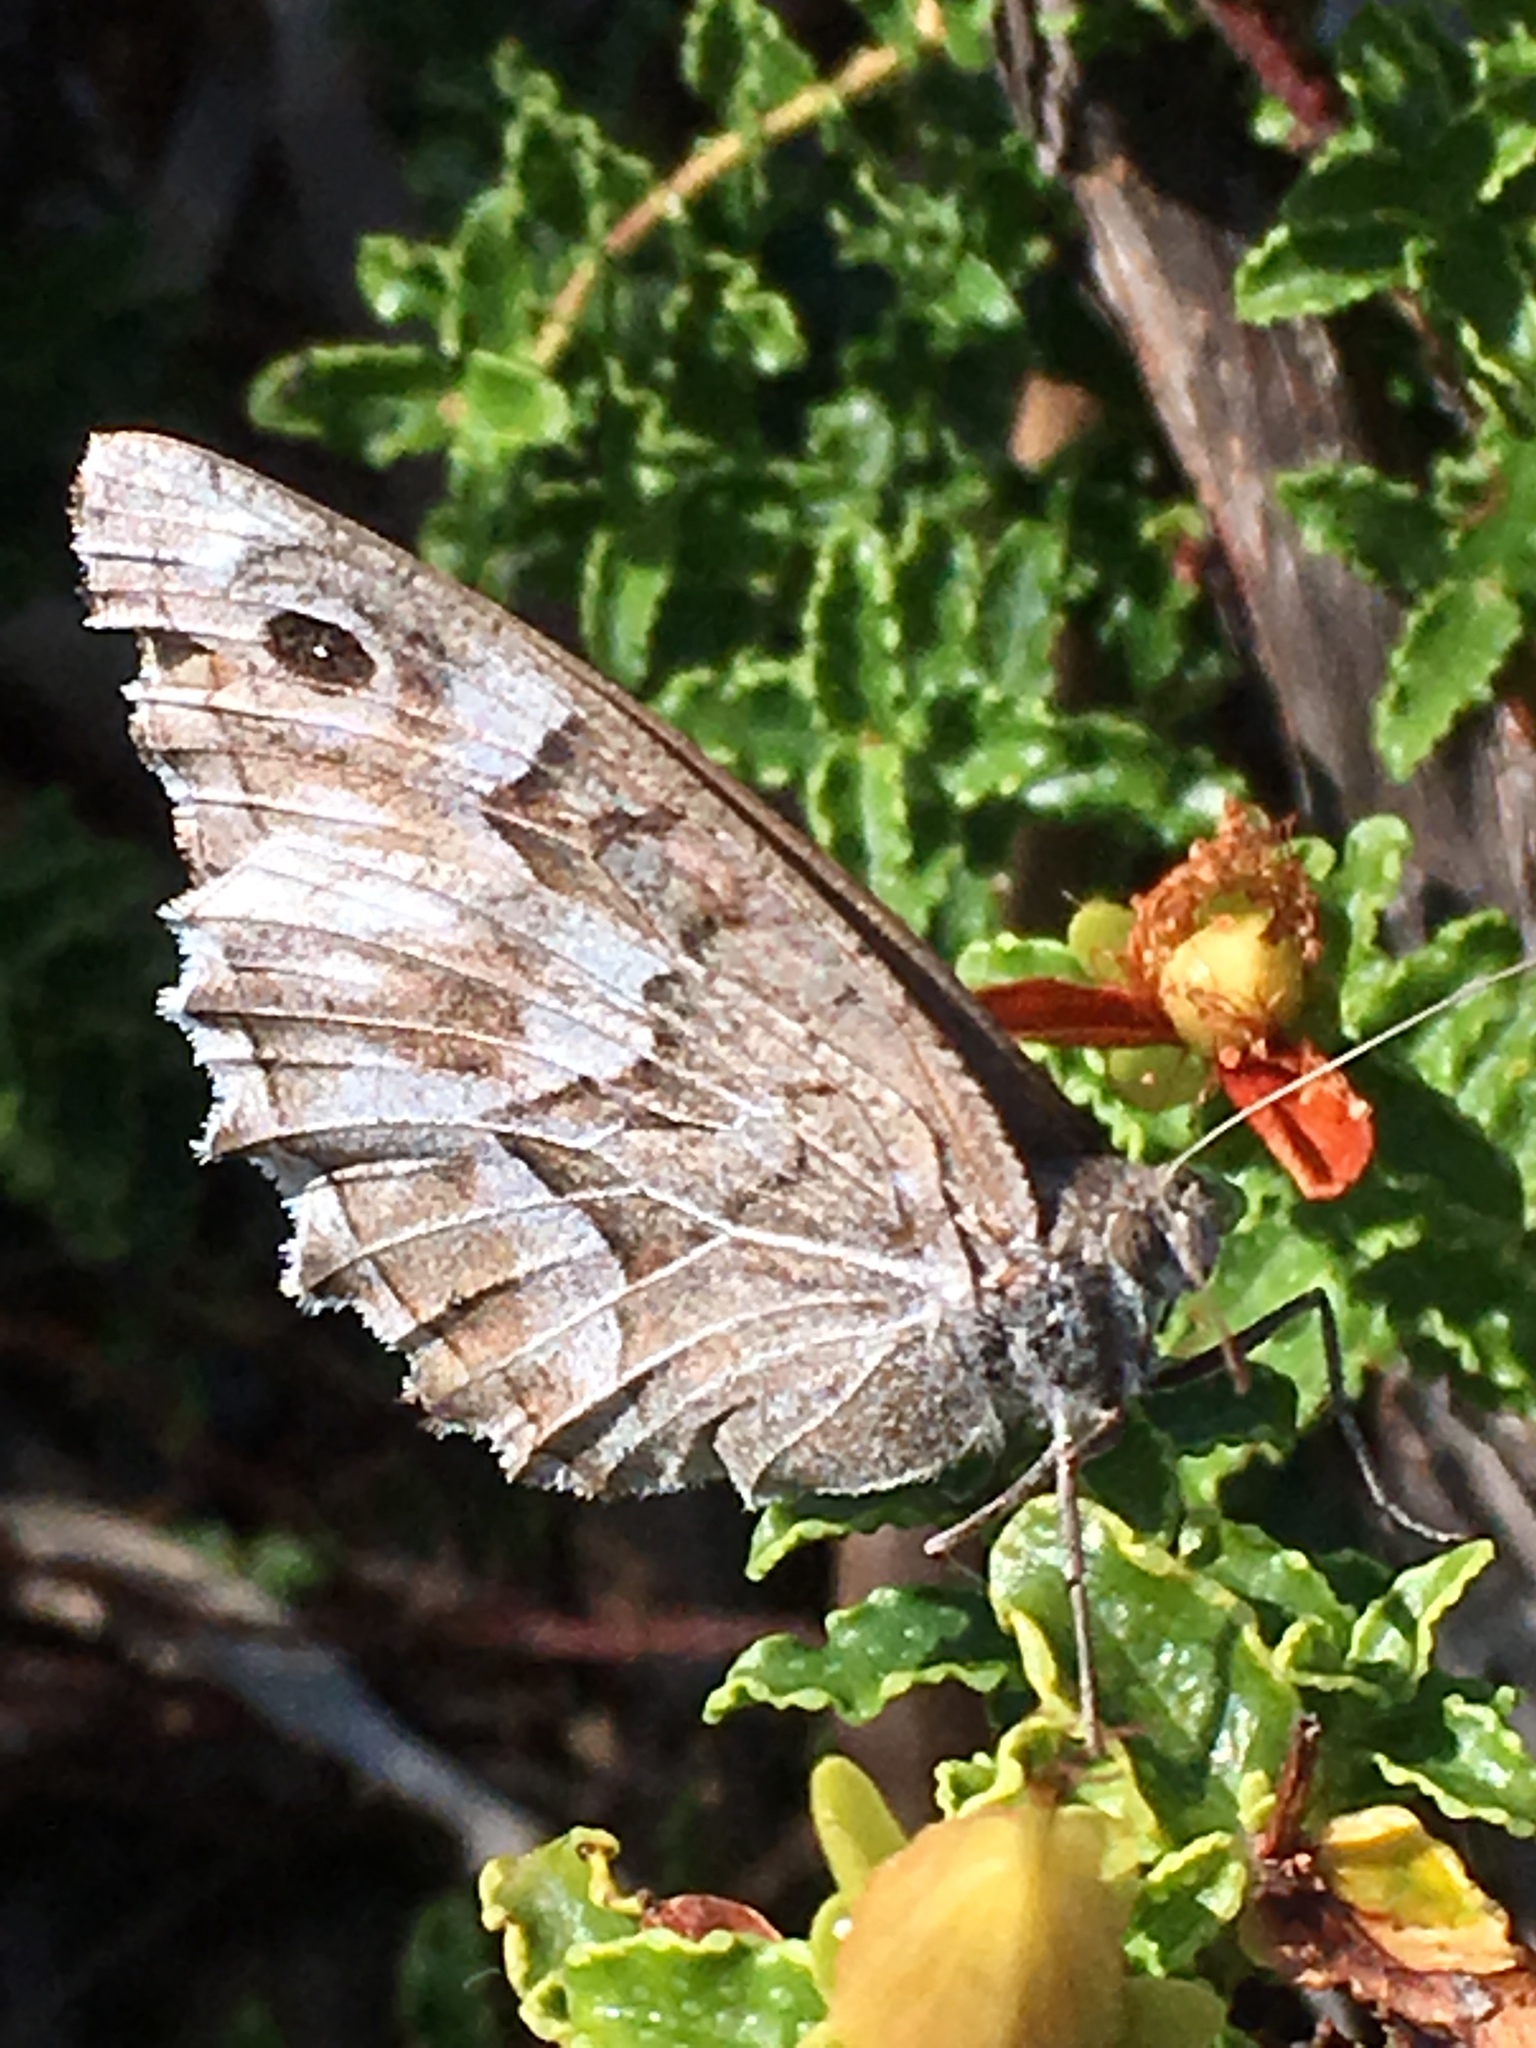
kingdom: Animalia
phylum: Arthropoda
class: Insecta
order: Lepidoptera
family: Nymphalidae
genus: Hipparchia
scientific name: Hipparchia fidia
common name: Striped grayling
